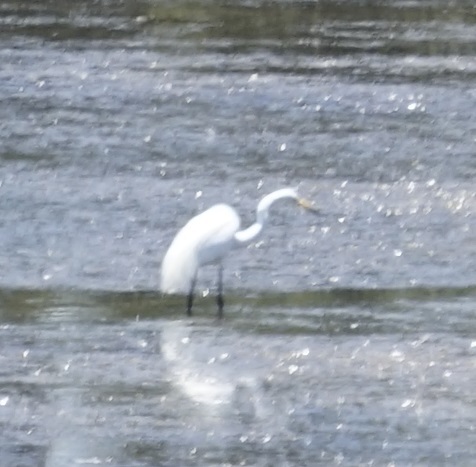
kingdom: Animalia
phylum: Chordata
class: Aves
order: Pelecaniformes
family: Ardeidae
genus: Ardea
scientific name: Ardea alba
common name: Great egret
